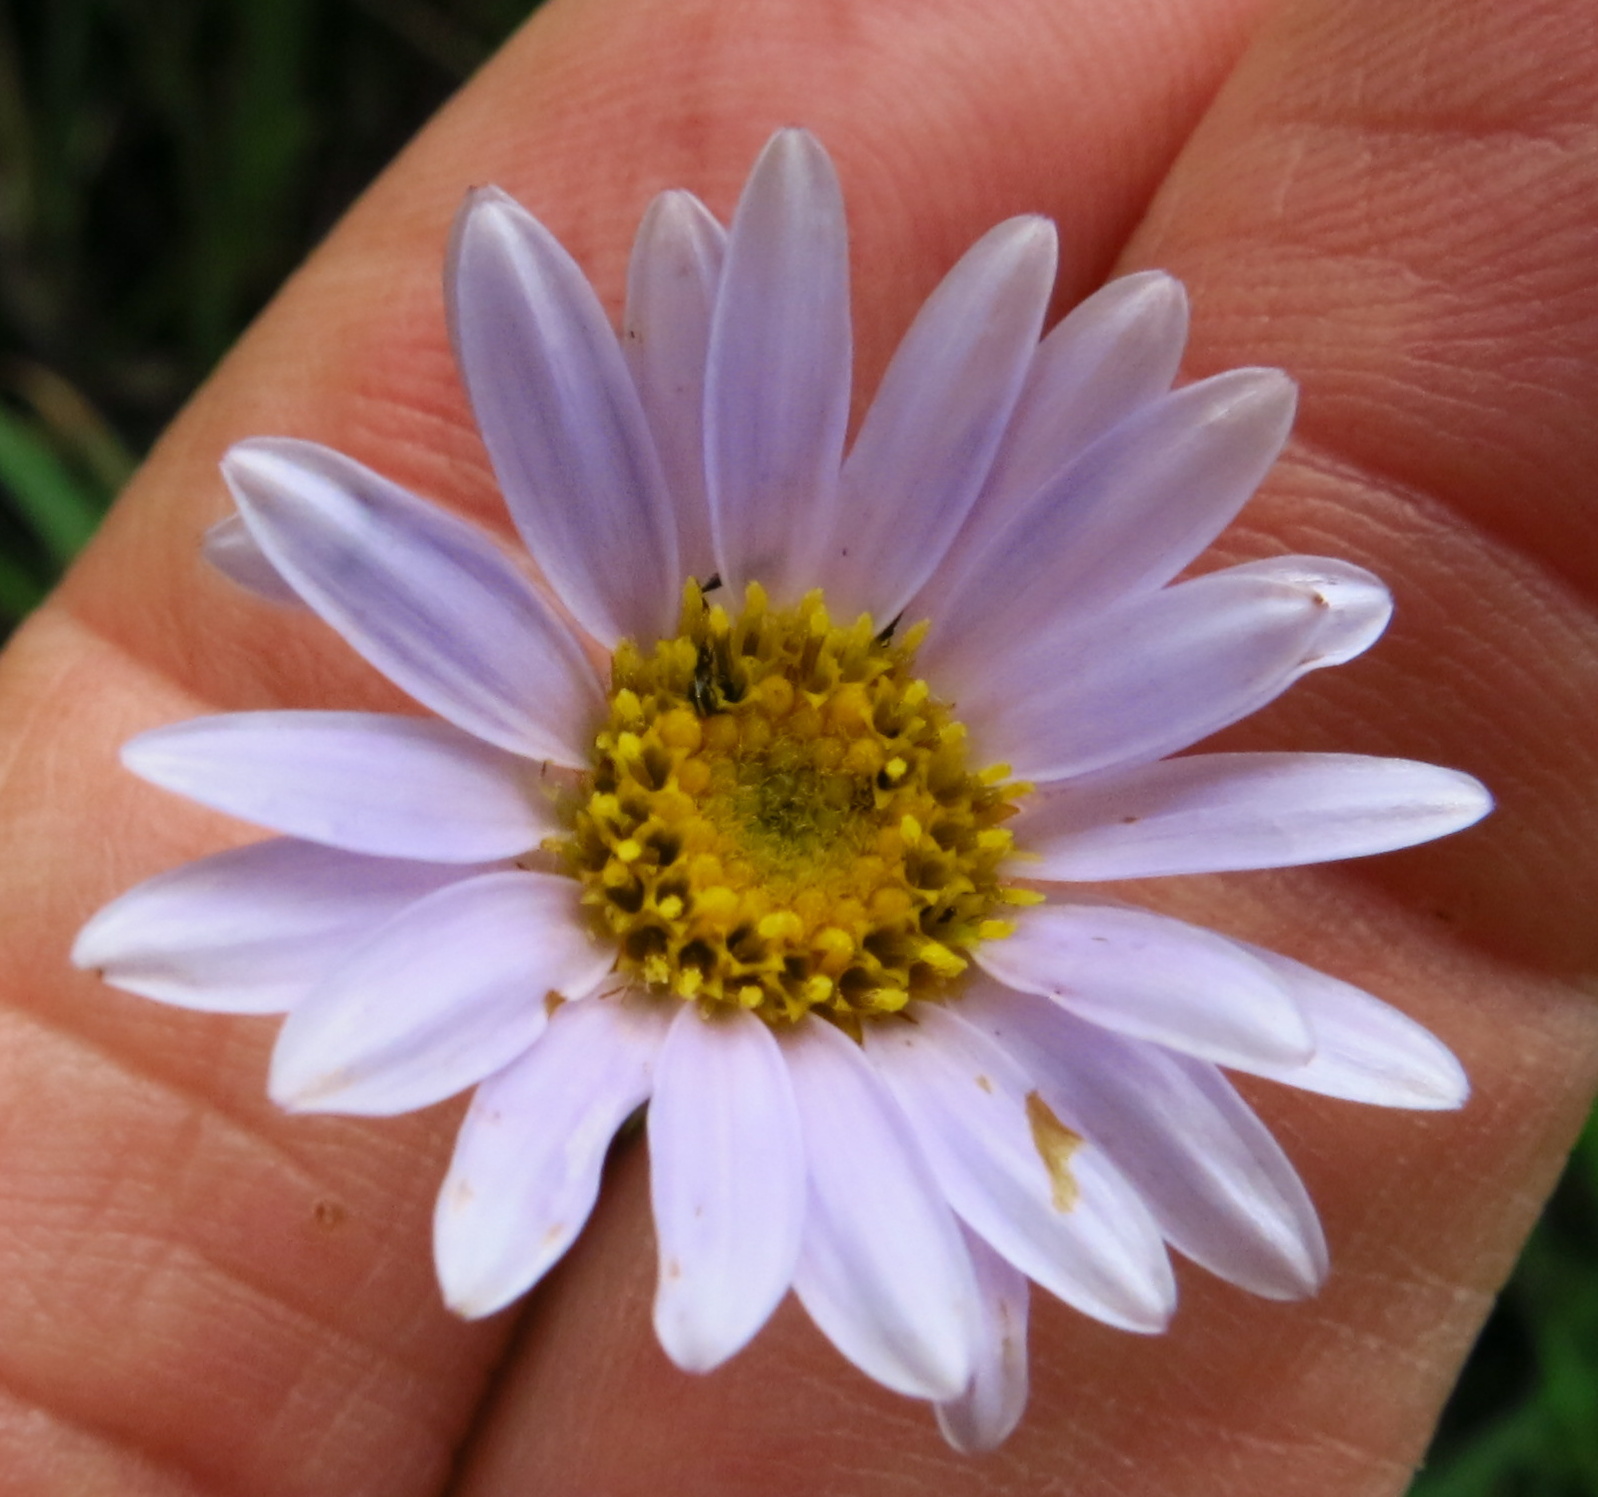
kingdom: Plantae
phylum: Tracheophyta
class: Magnoliopsida
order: Asterales
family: Asteraceae
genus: Afroaster
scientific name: Afroaster hispidus
